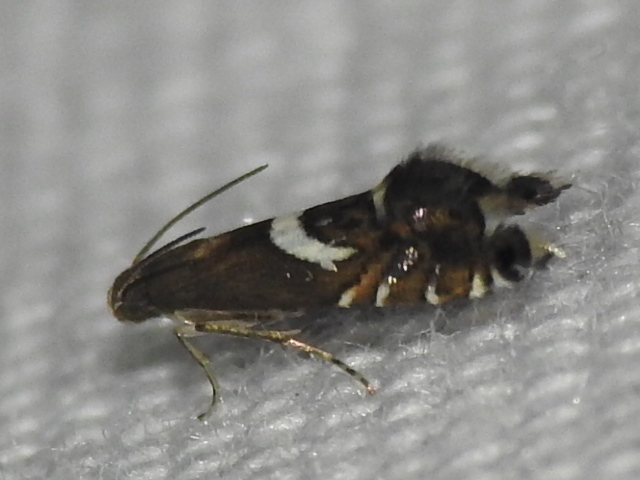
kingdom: Animalia
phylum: Arthropoda
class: Insecta
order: Lepidoptera
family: Glyphipterigidae
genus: Glyphipterix
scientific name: Glyphipterix Diploschizia impigritella
